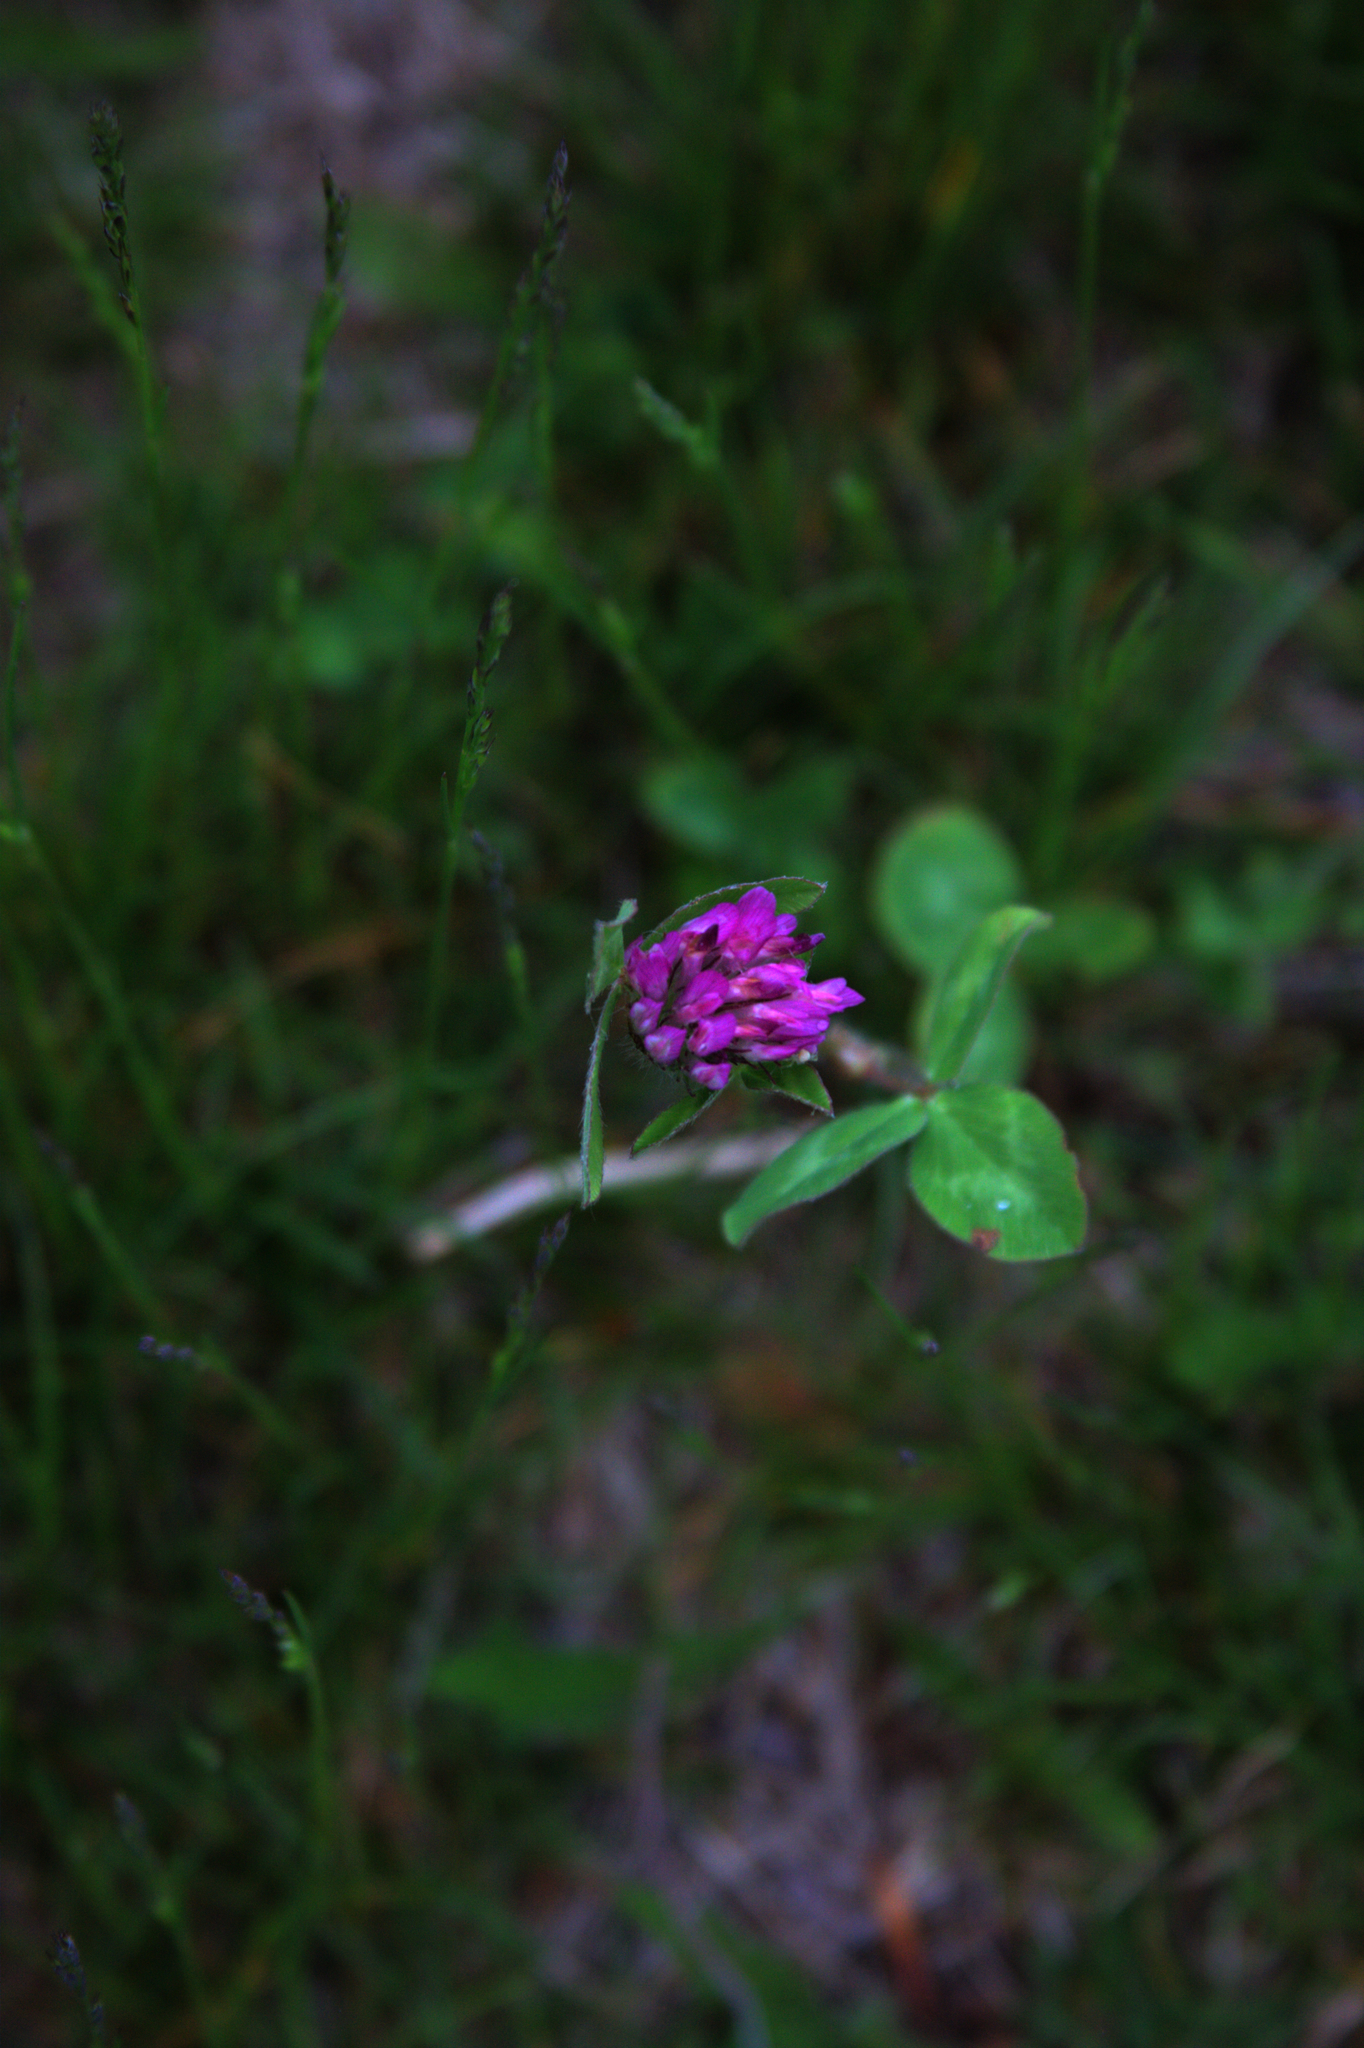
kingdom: Plantae
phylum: Tracheophyta
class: Magnoliopsida
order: Fabales
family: Fabaceae
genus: Trifolium
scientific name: Trifolium pratense
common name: Red clover
